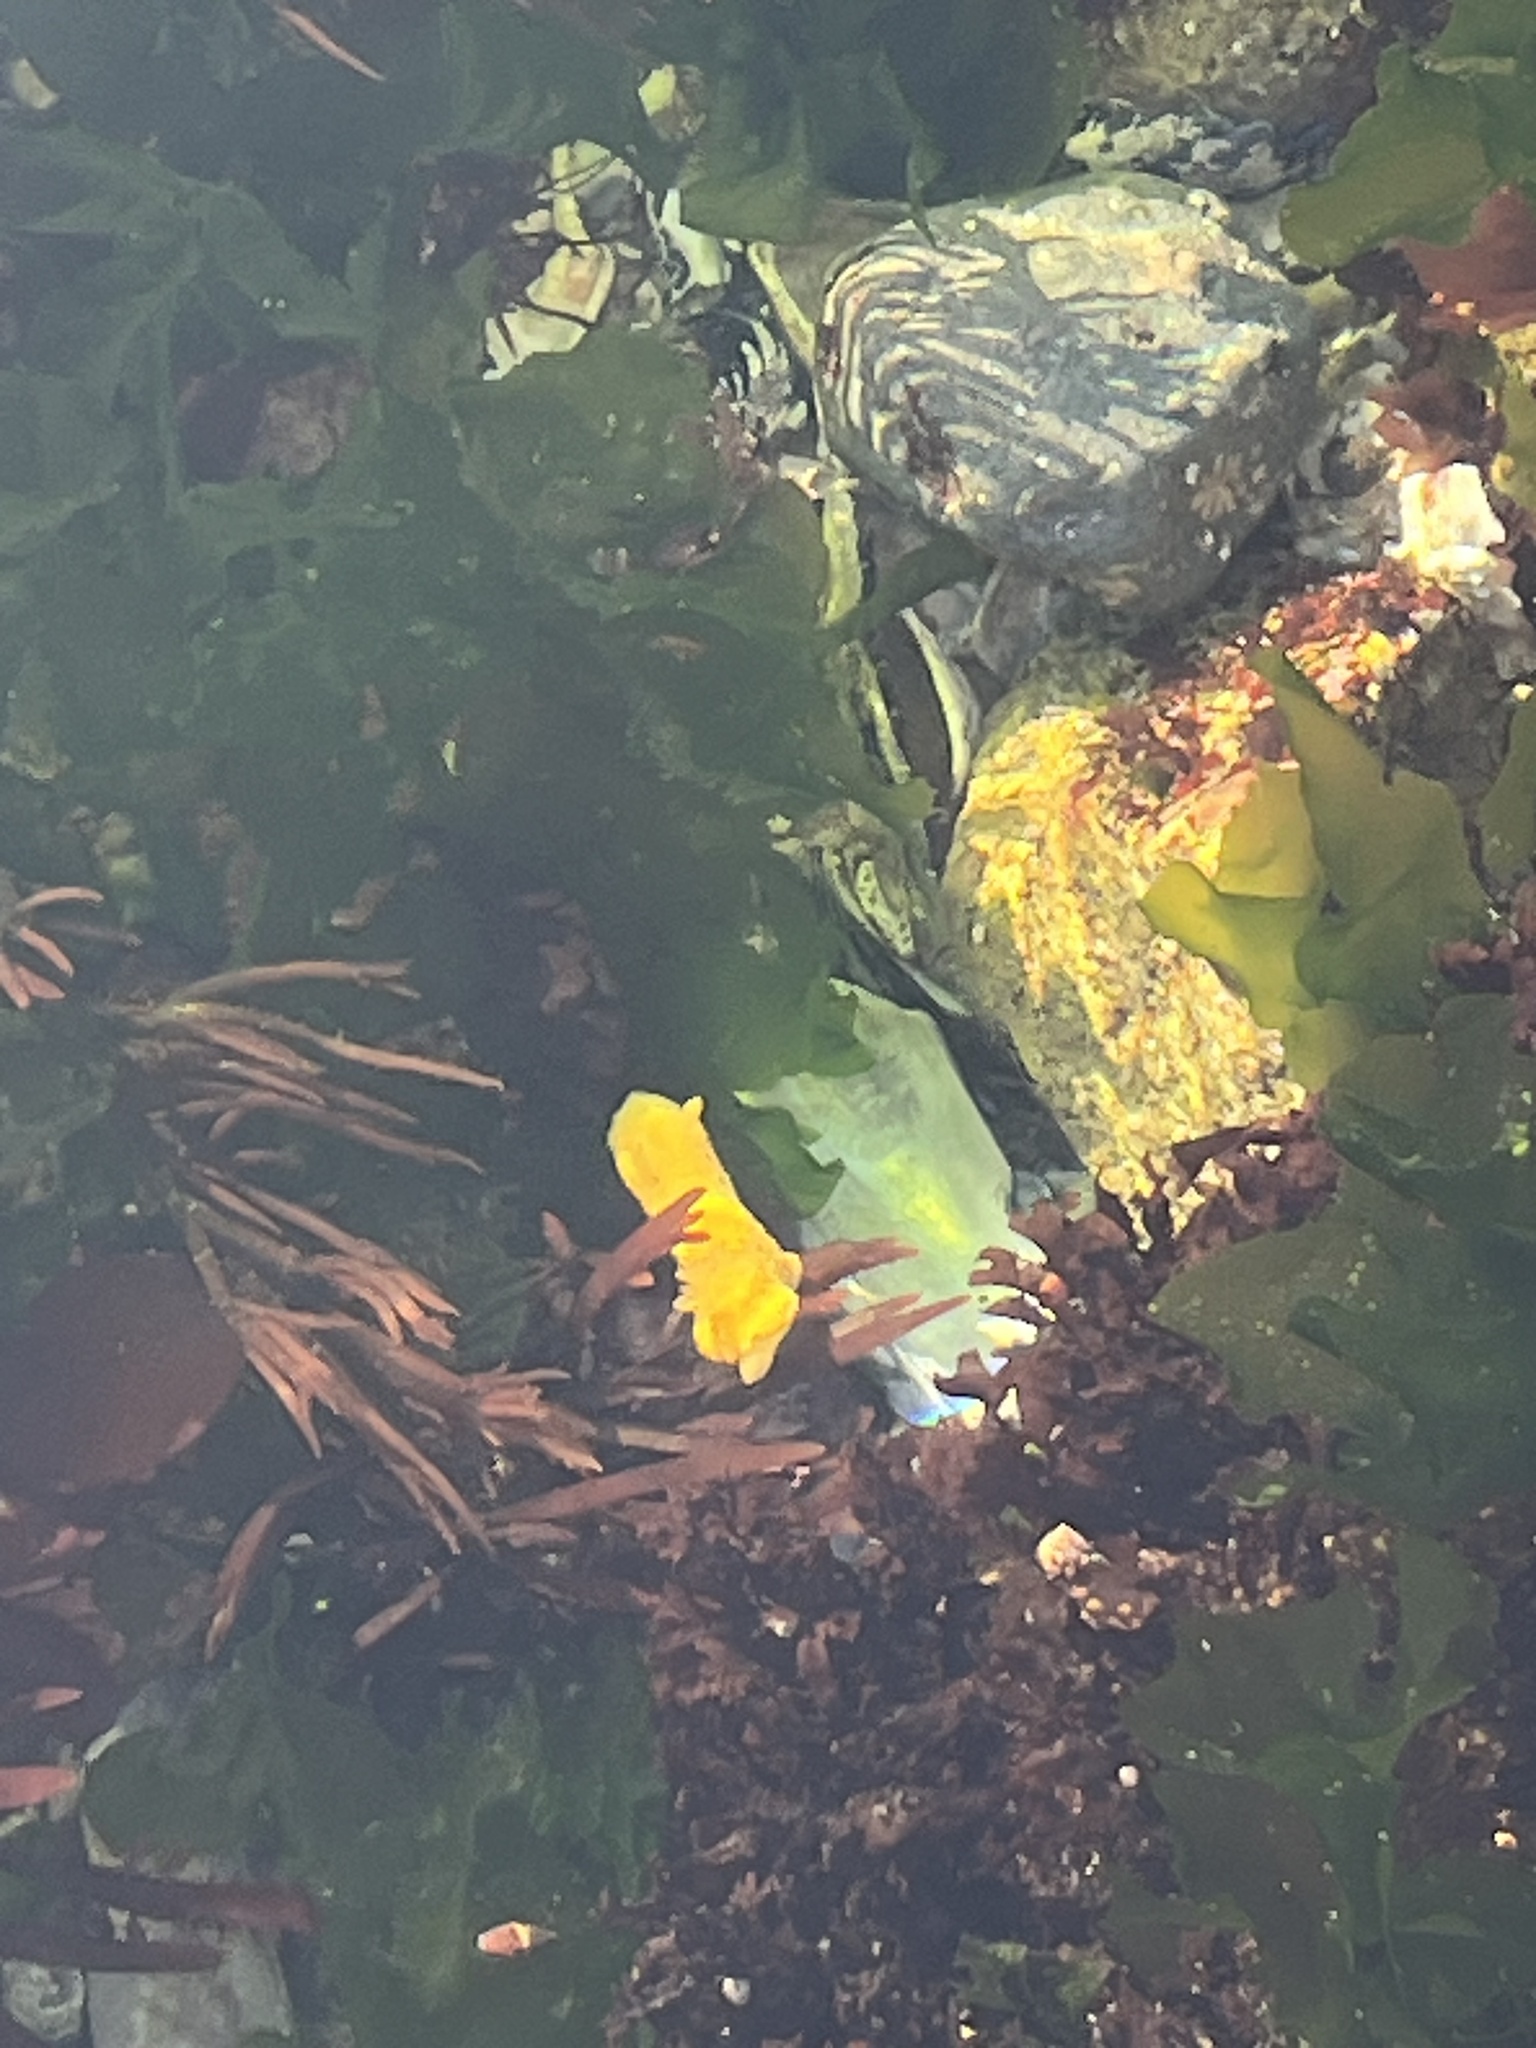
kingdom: Animalia
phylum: Mollusca
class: Gastropoda
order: Nudibranchia
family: Dorididae
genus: Doris
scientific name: Doris montereyensis
